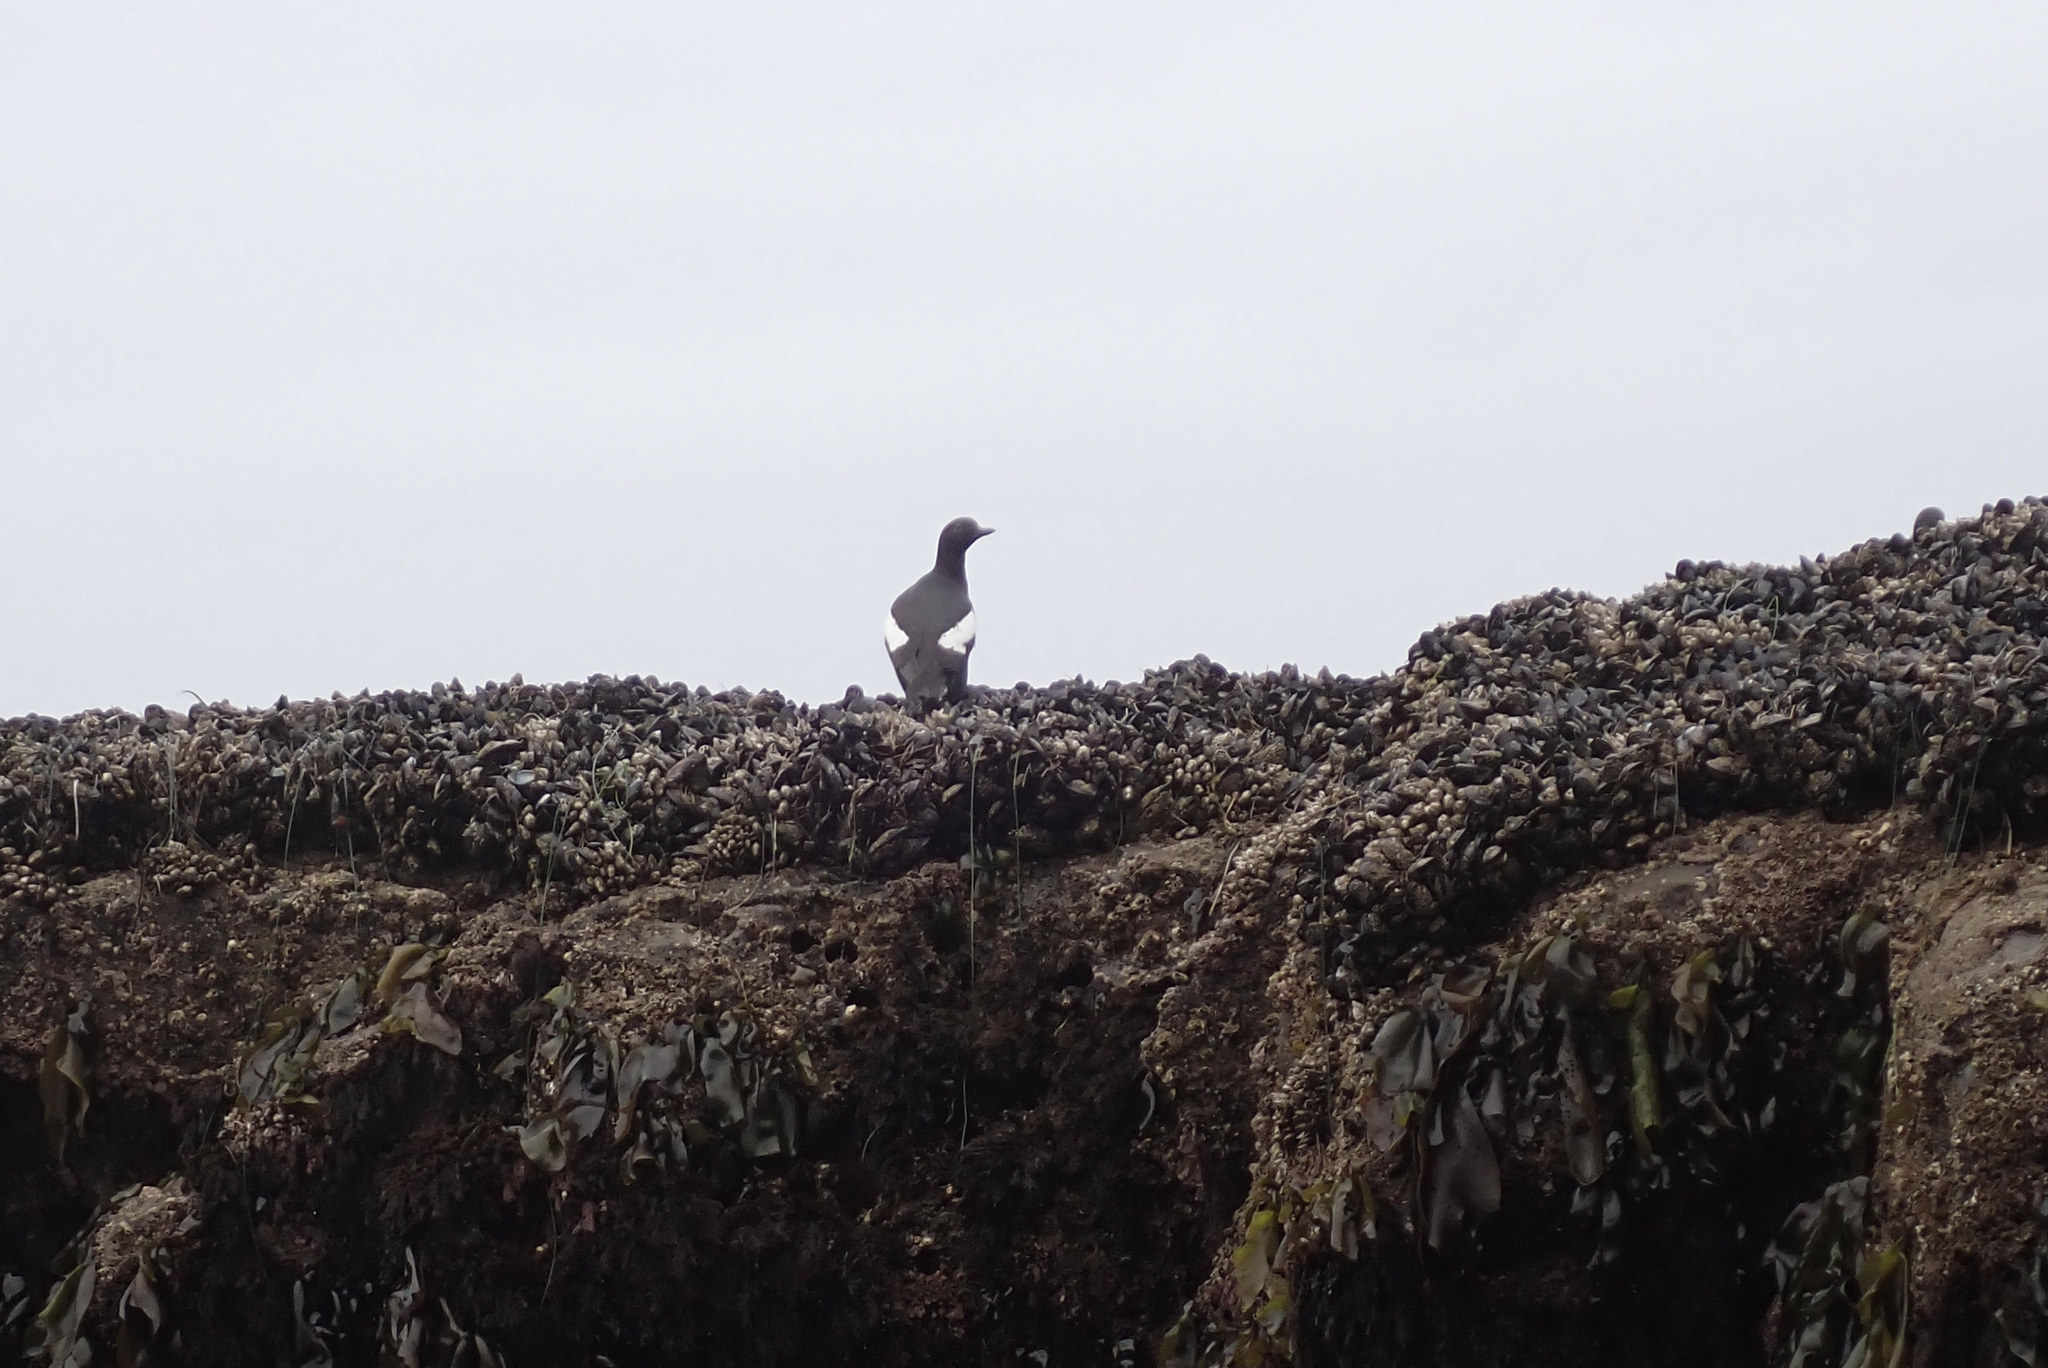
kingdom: Animalia
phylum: Chordata
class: Aves
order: Charadriiformes
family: Alcidae
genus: Cepphus
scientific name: Cepphus columba
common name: Pigeon guillemot
